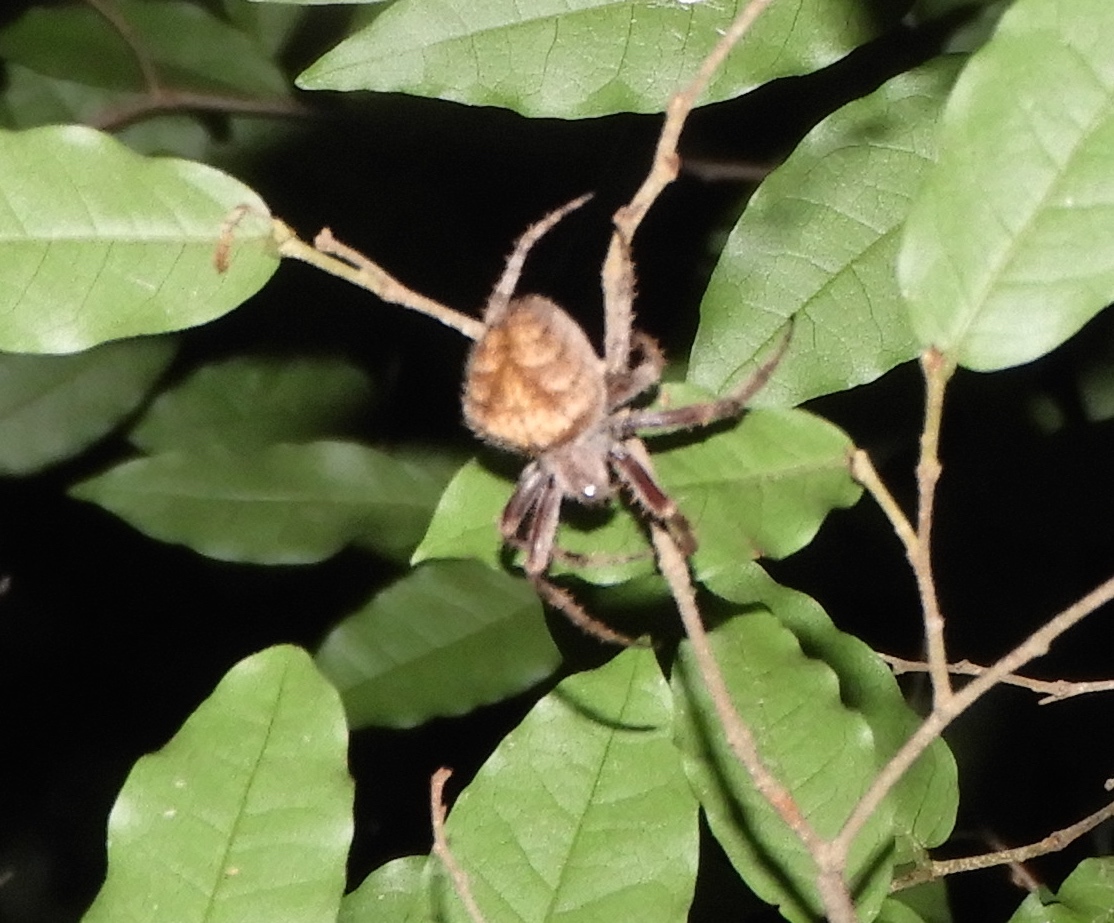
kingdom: Animalia
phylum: Arthropoda
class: Arachnida
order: Araneae
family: Araneidae
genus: Eriophora
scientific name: Eriophora edax
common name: Orb weavers
